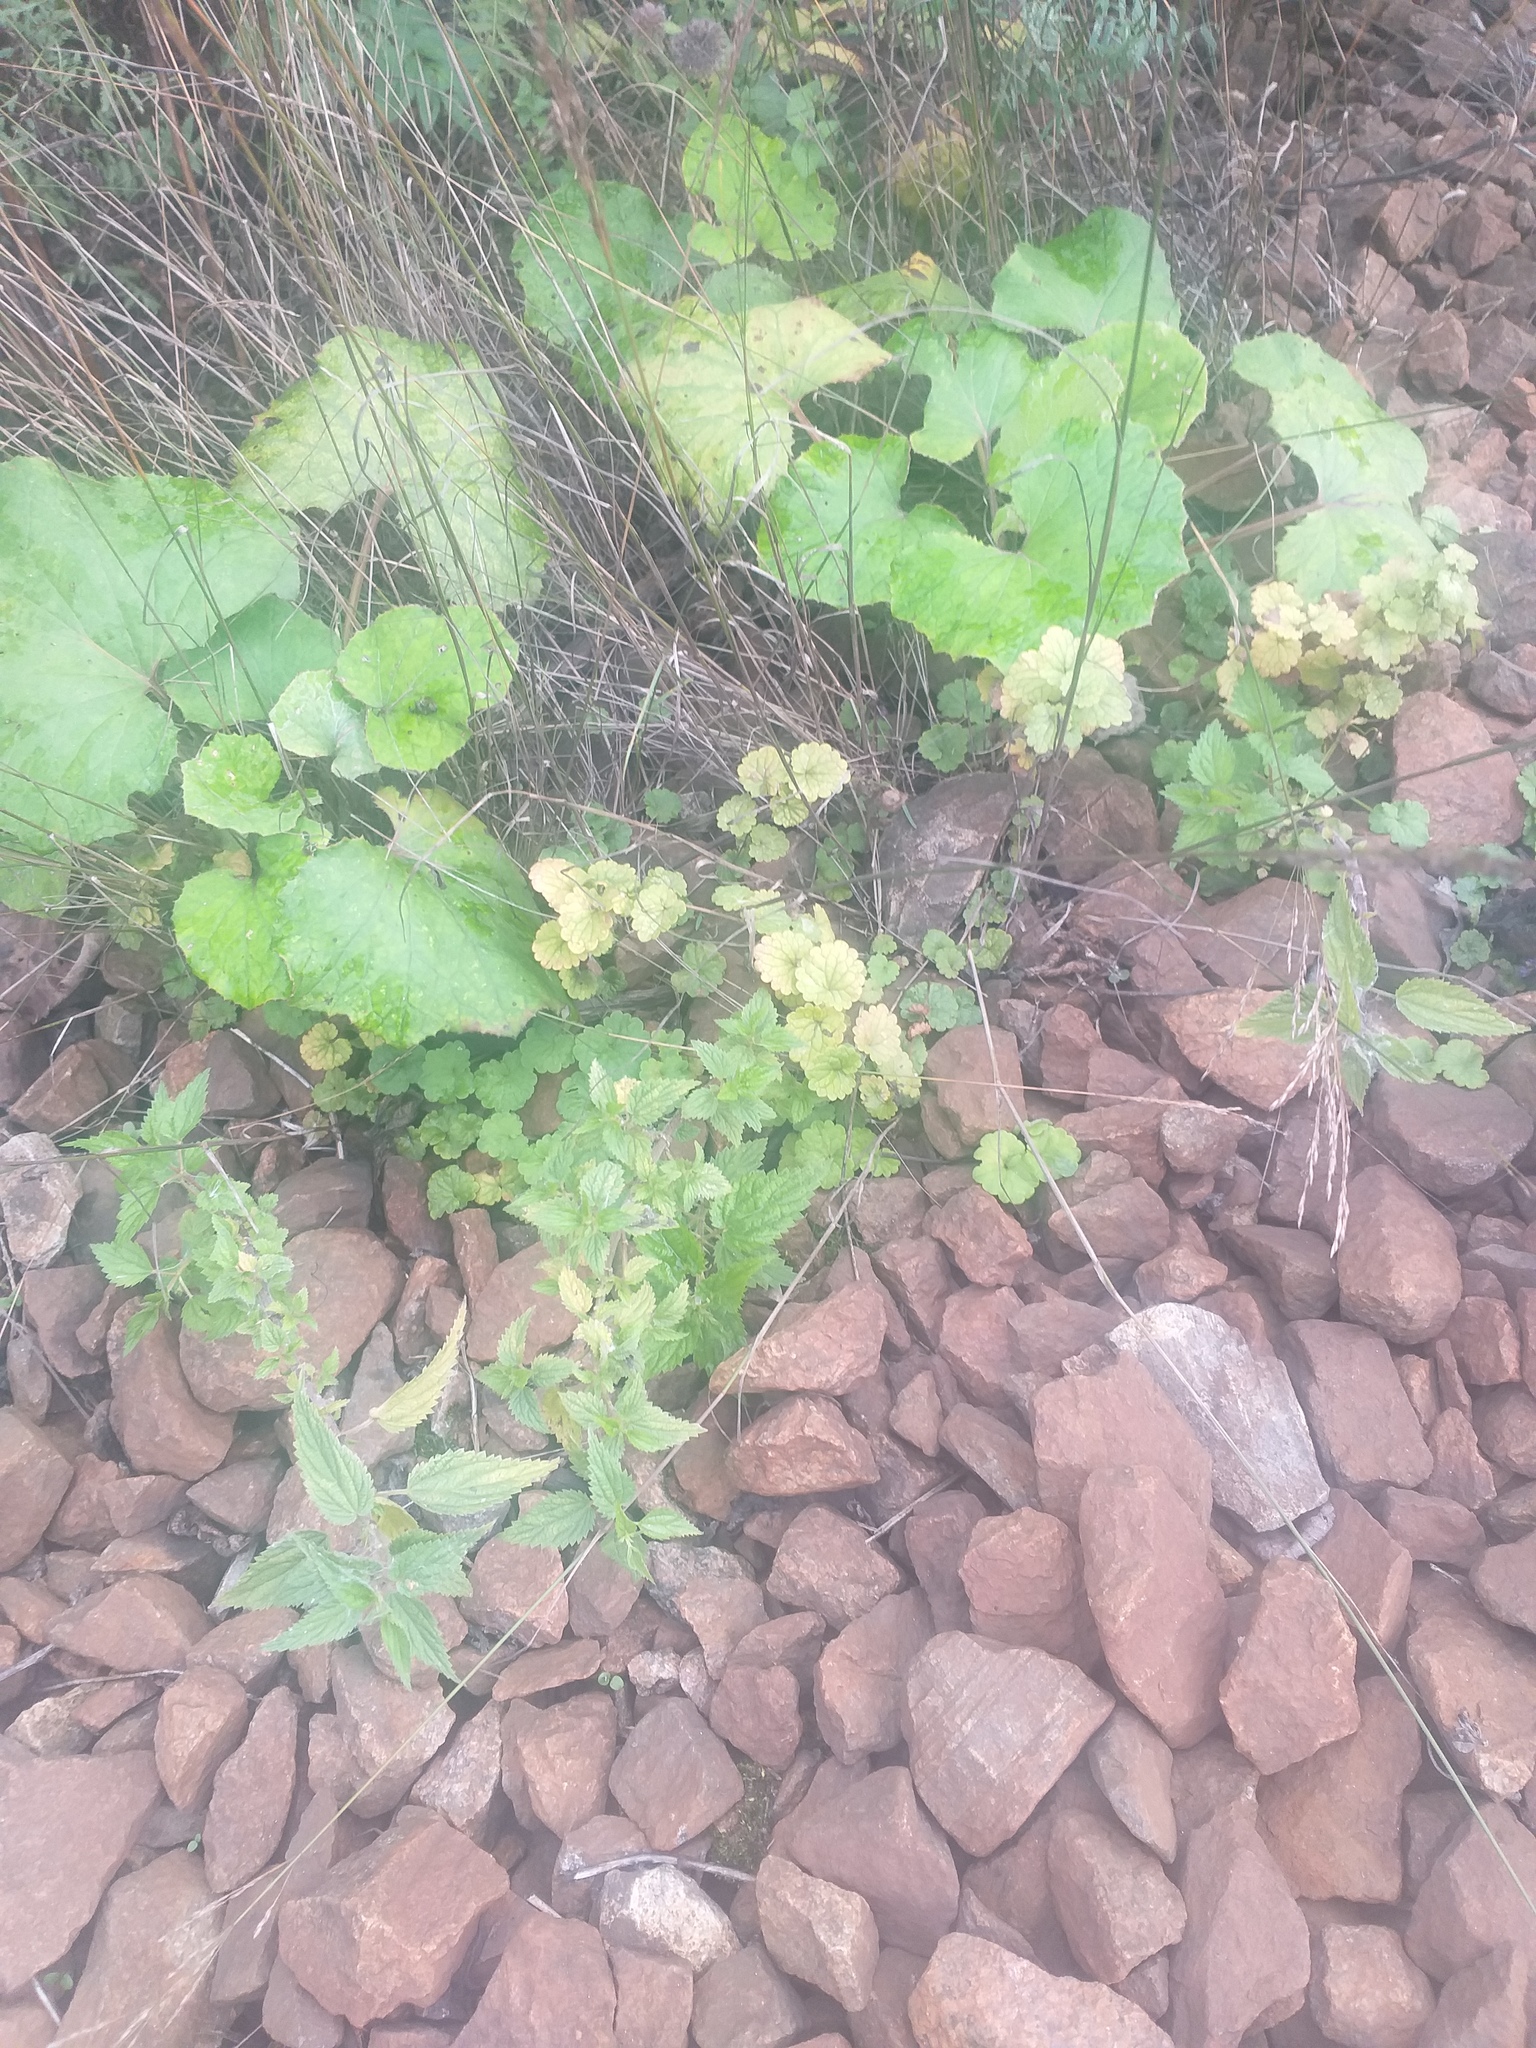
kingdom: Plantae
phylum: Tracheophyta
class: Magnoliopsida
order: Lamiales
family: Lamiaceae
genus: Glechoma
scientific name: Glechoma hederacea
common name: Ground ivy
